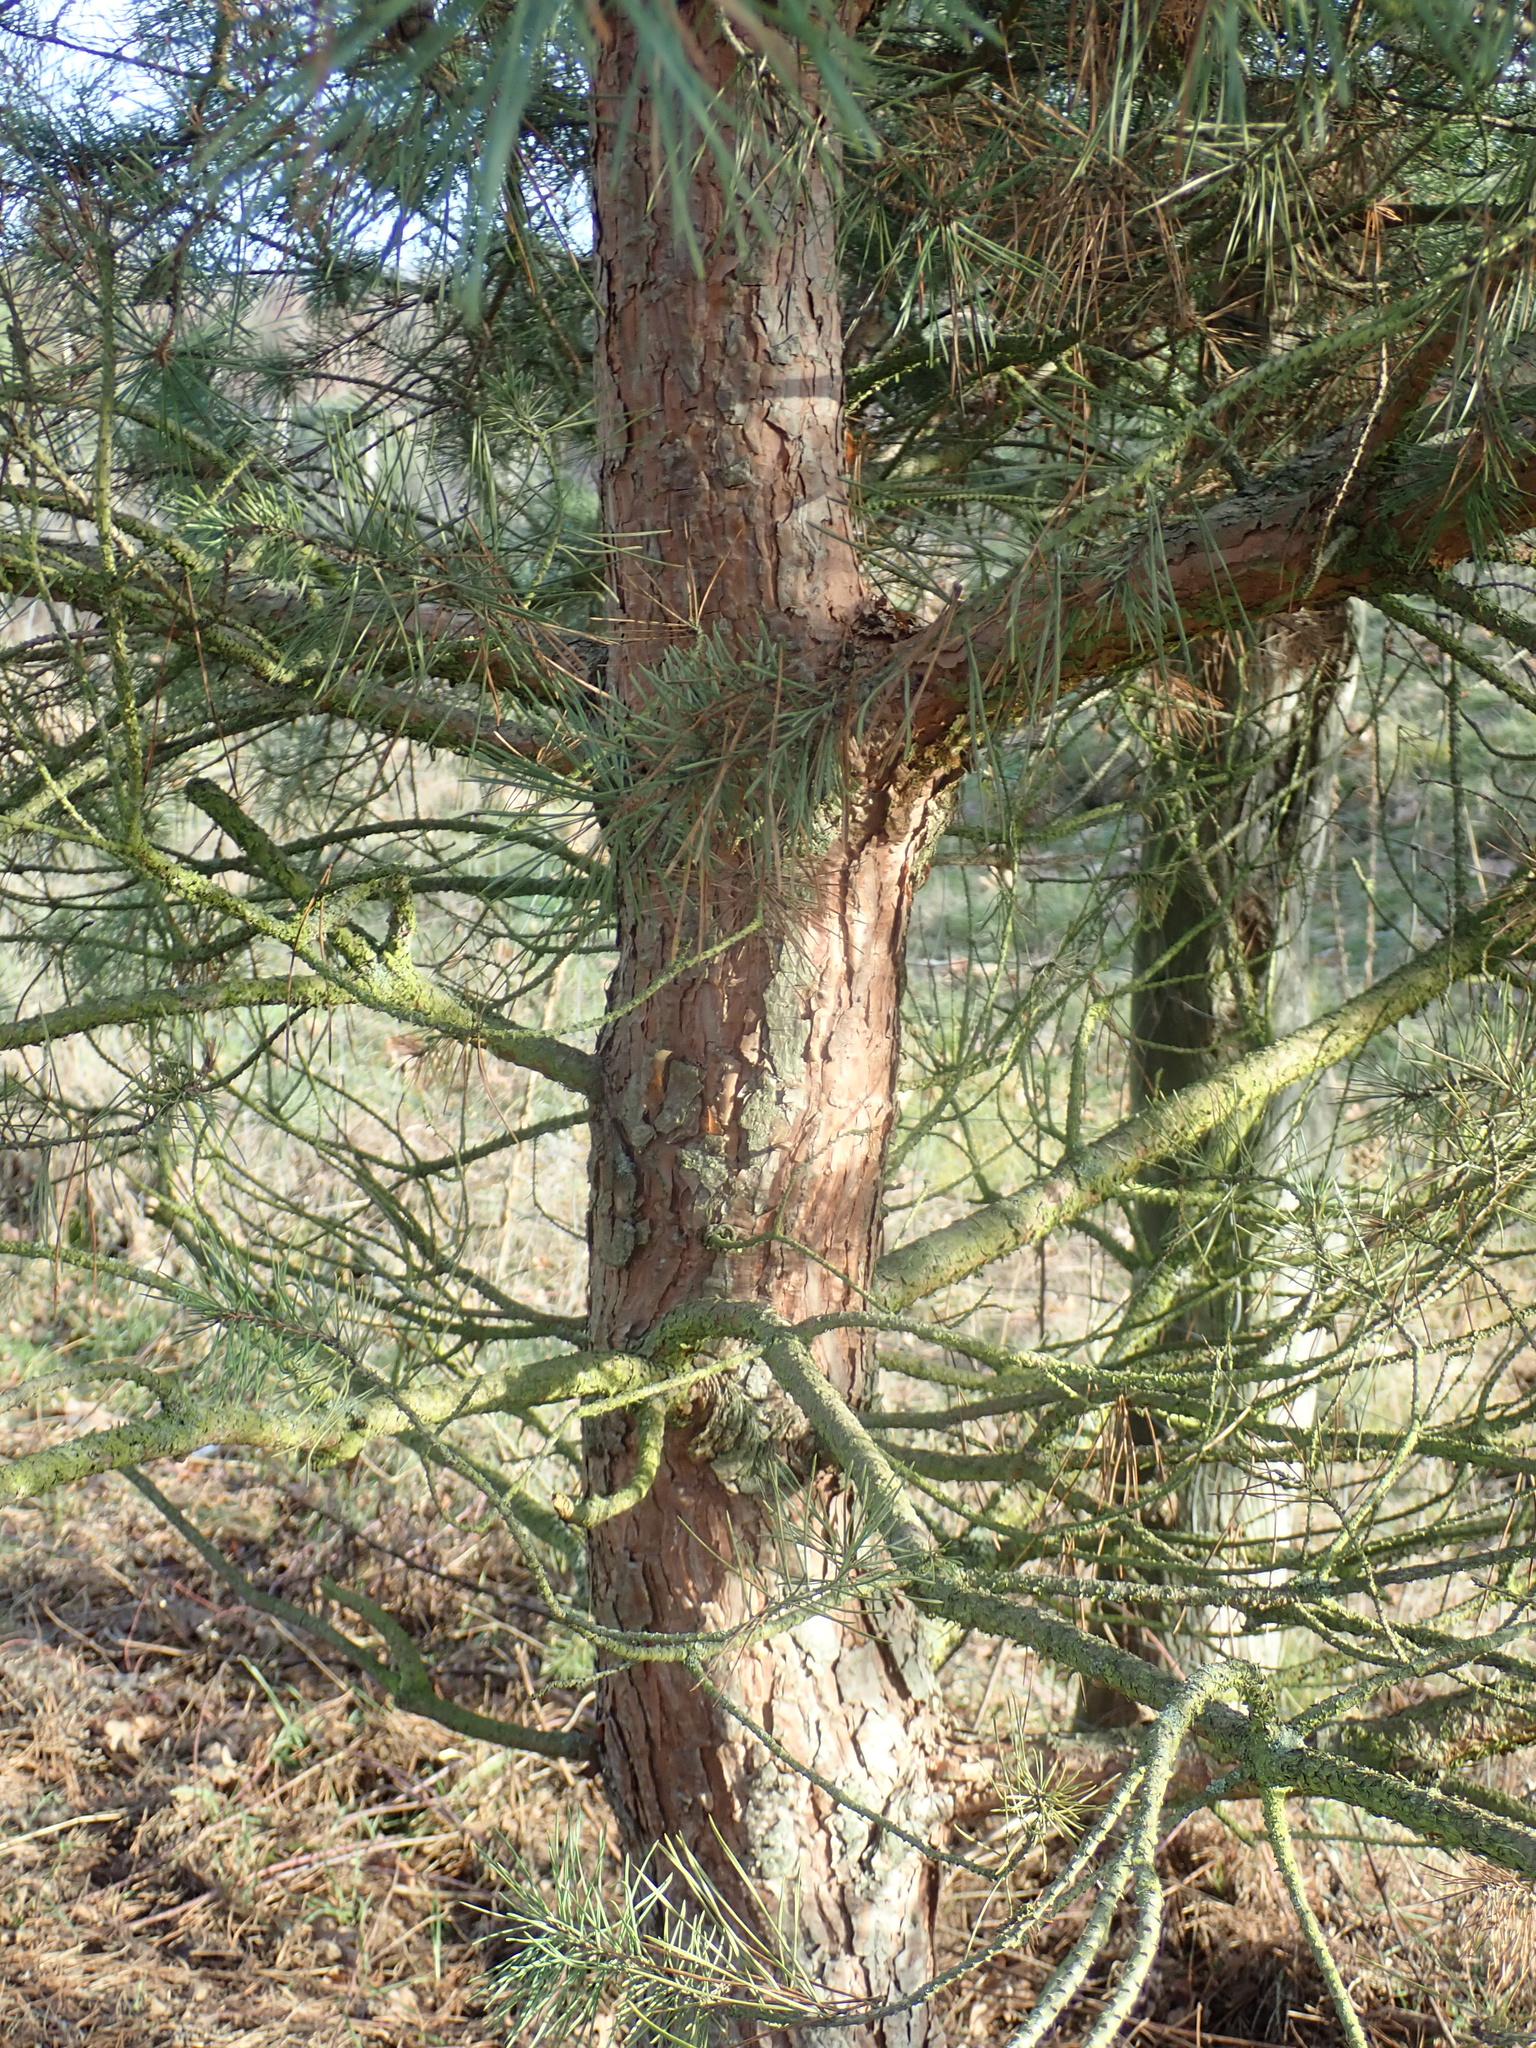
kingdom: Plantae
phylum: Tracheophyta
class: Pinopsida
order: Pinales
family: Pinaceae
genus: Pinus
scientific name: Pinus sylvestris
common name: Scots pine
